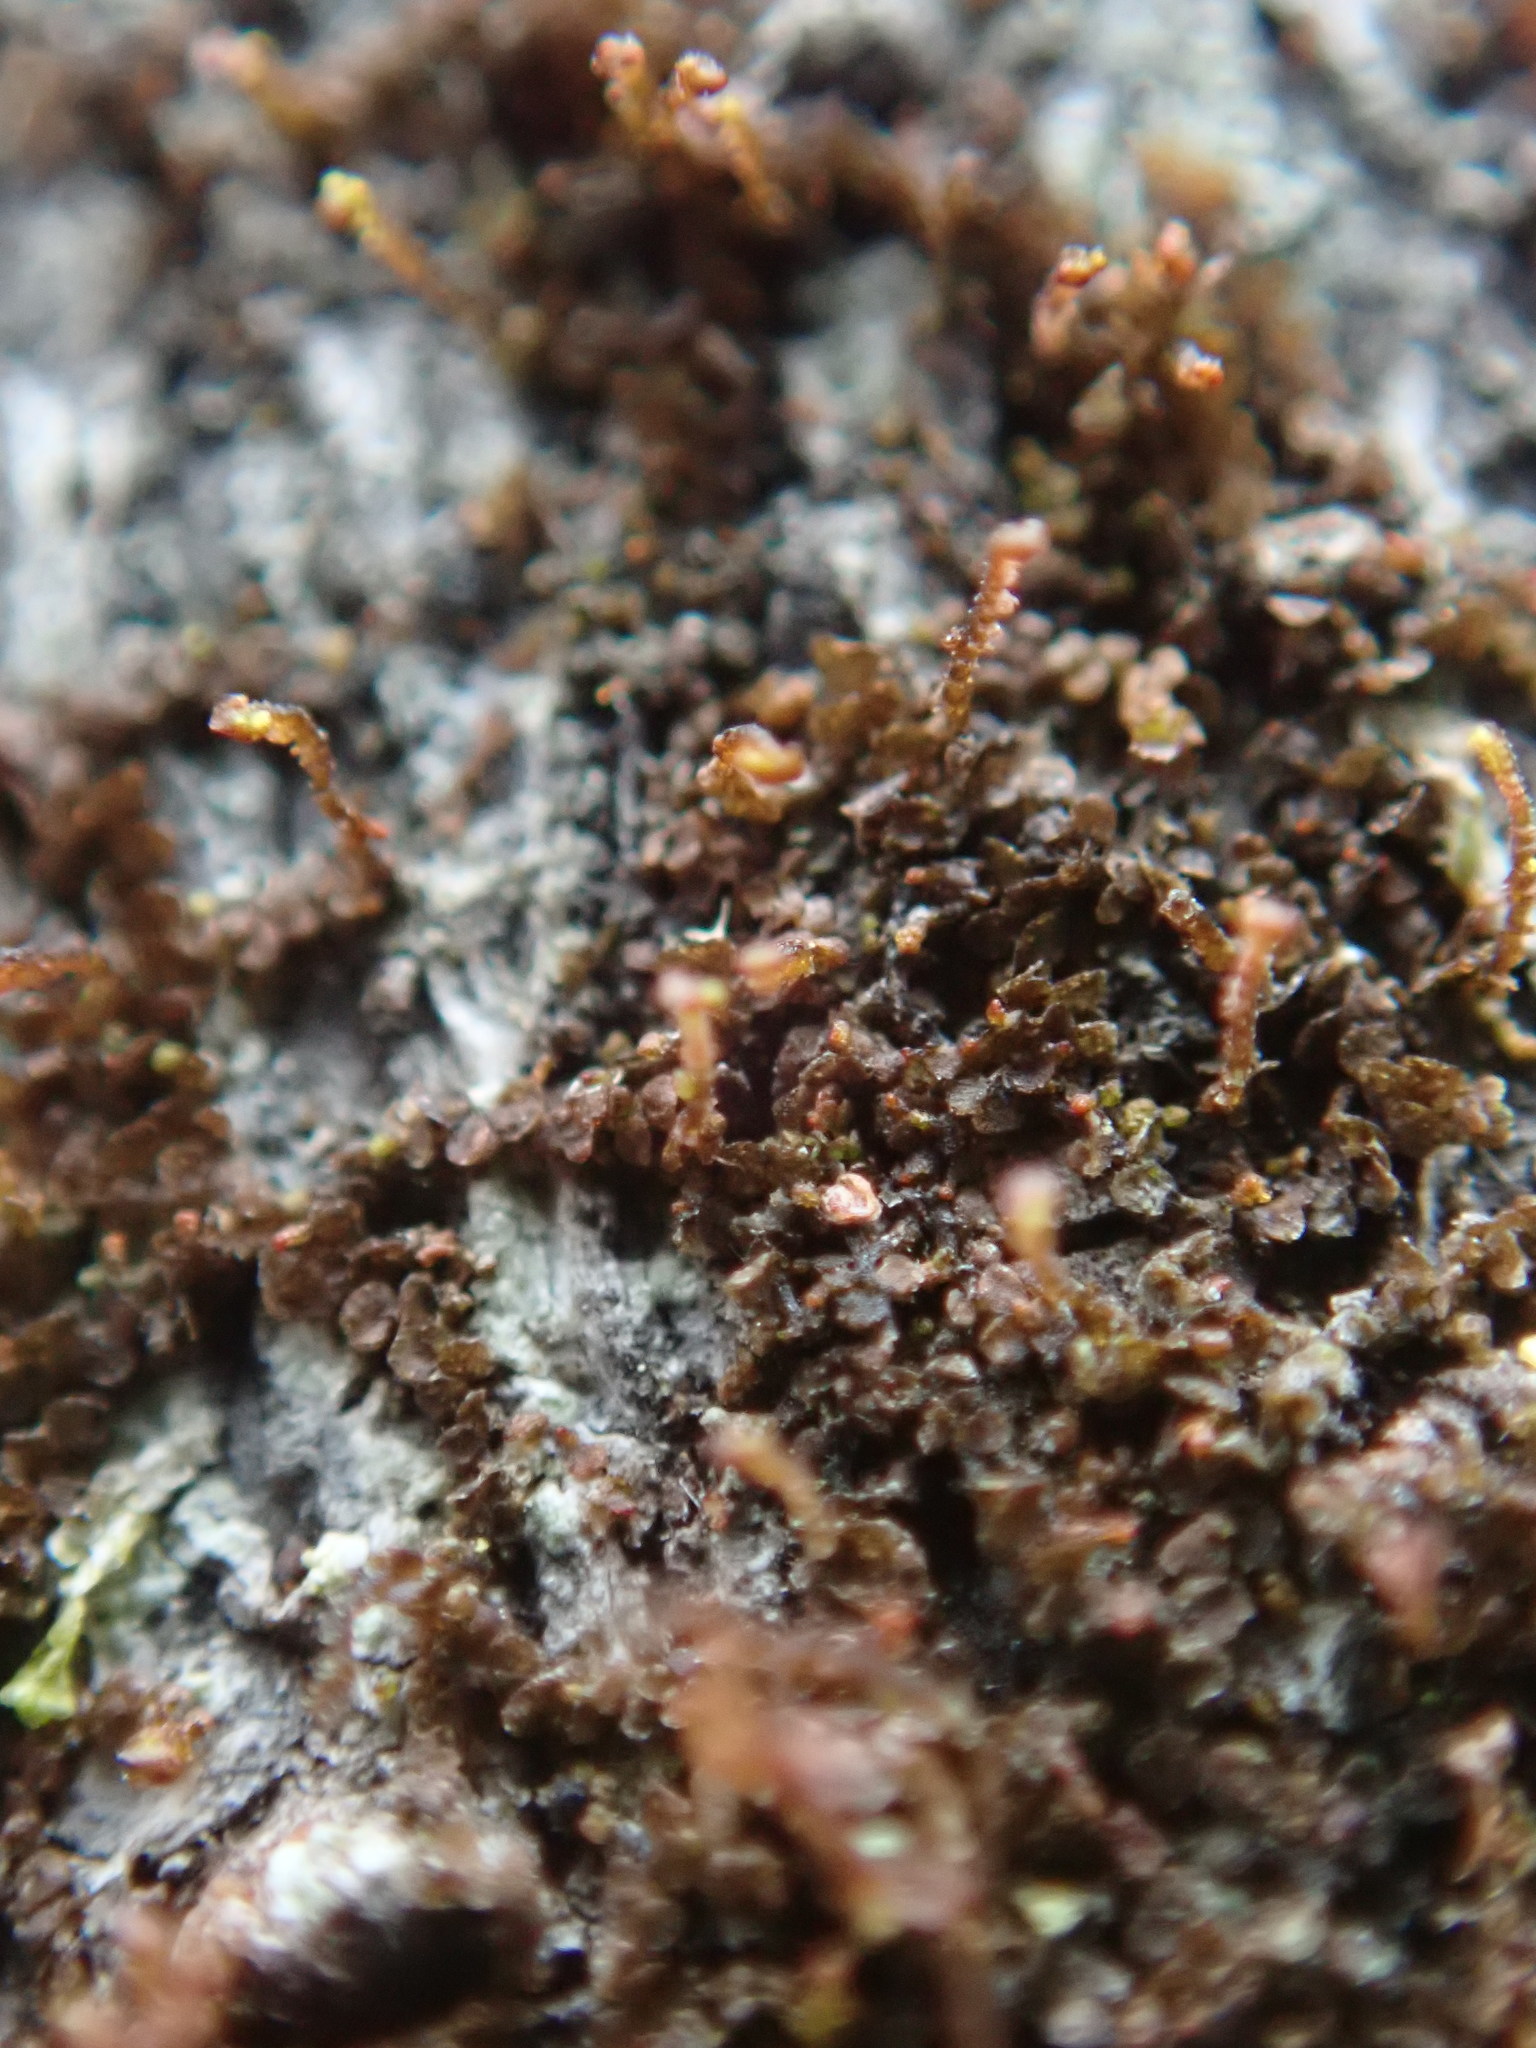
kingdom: Plantae
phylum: Marchantiophyta
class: Jungermanniopsida
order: Porellales
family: Frullaniaceae
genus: Frullania
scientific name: Frullania bolanderi
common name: Bolander s scalewort
